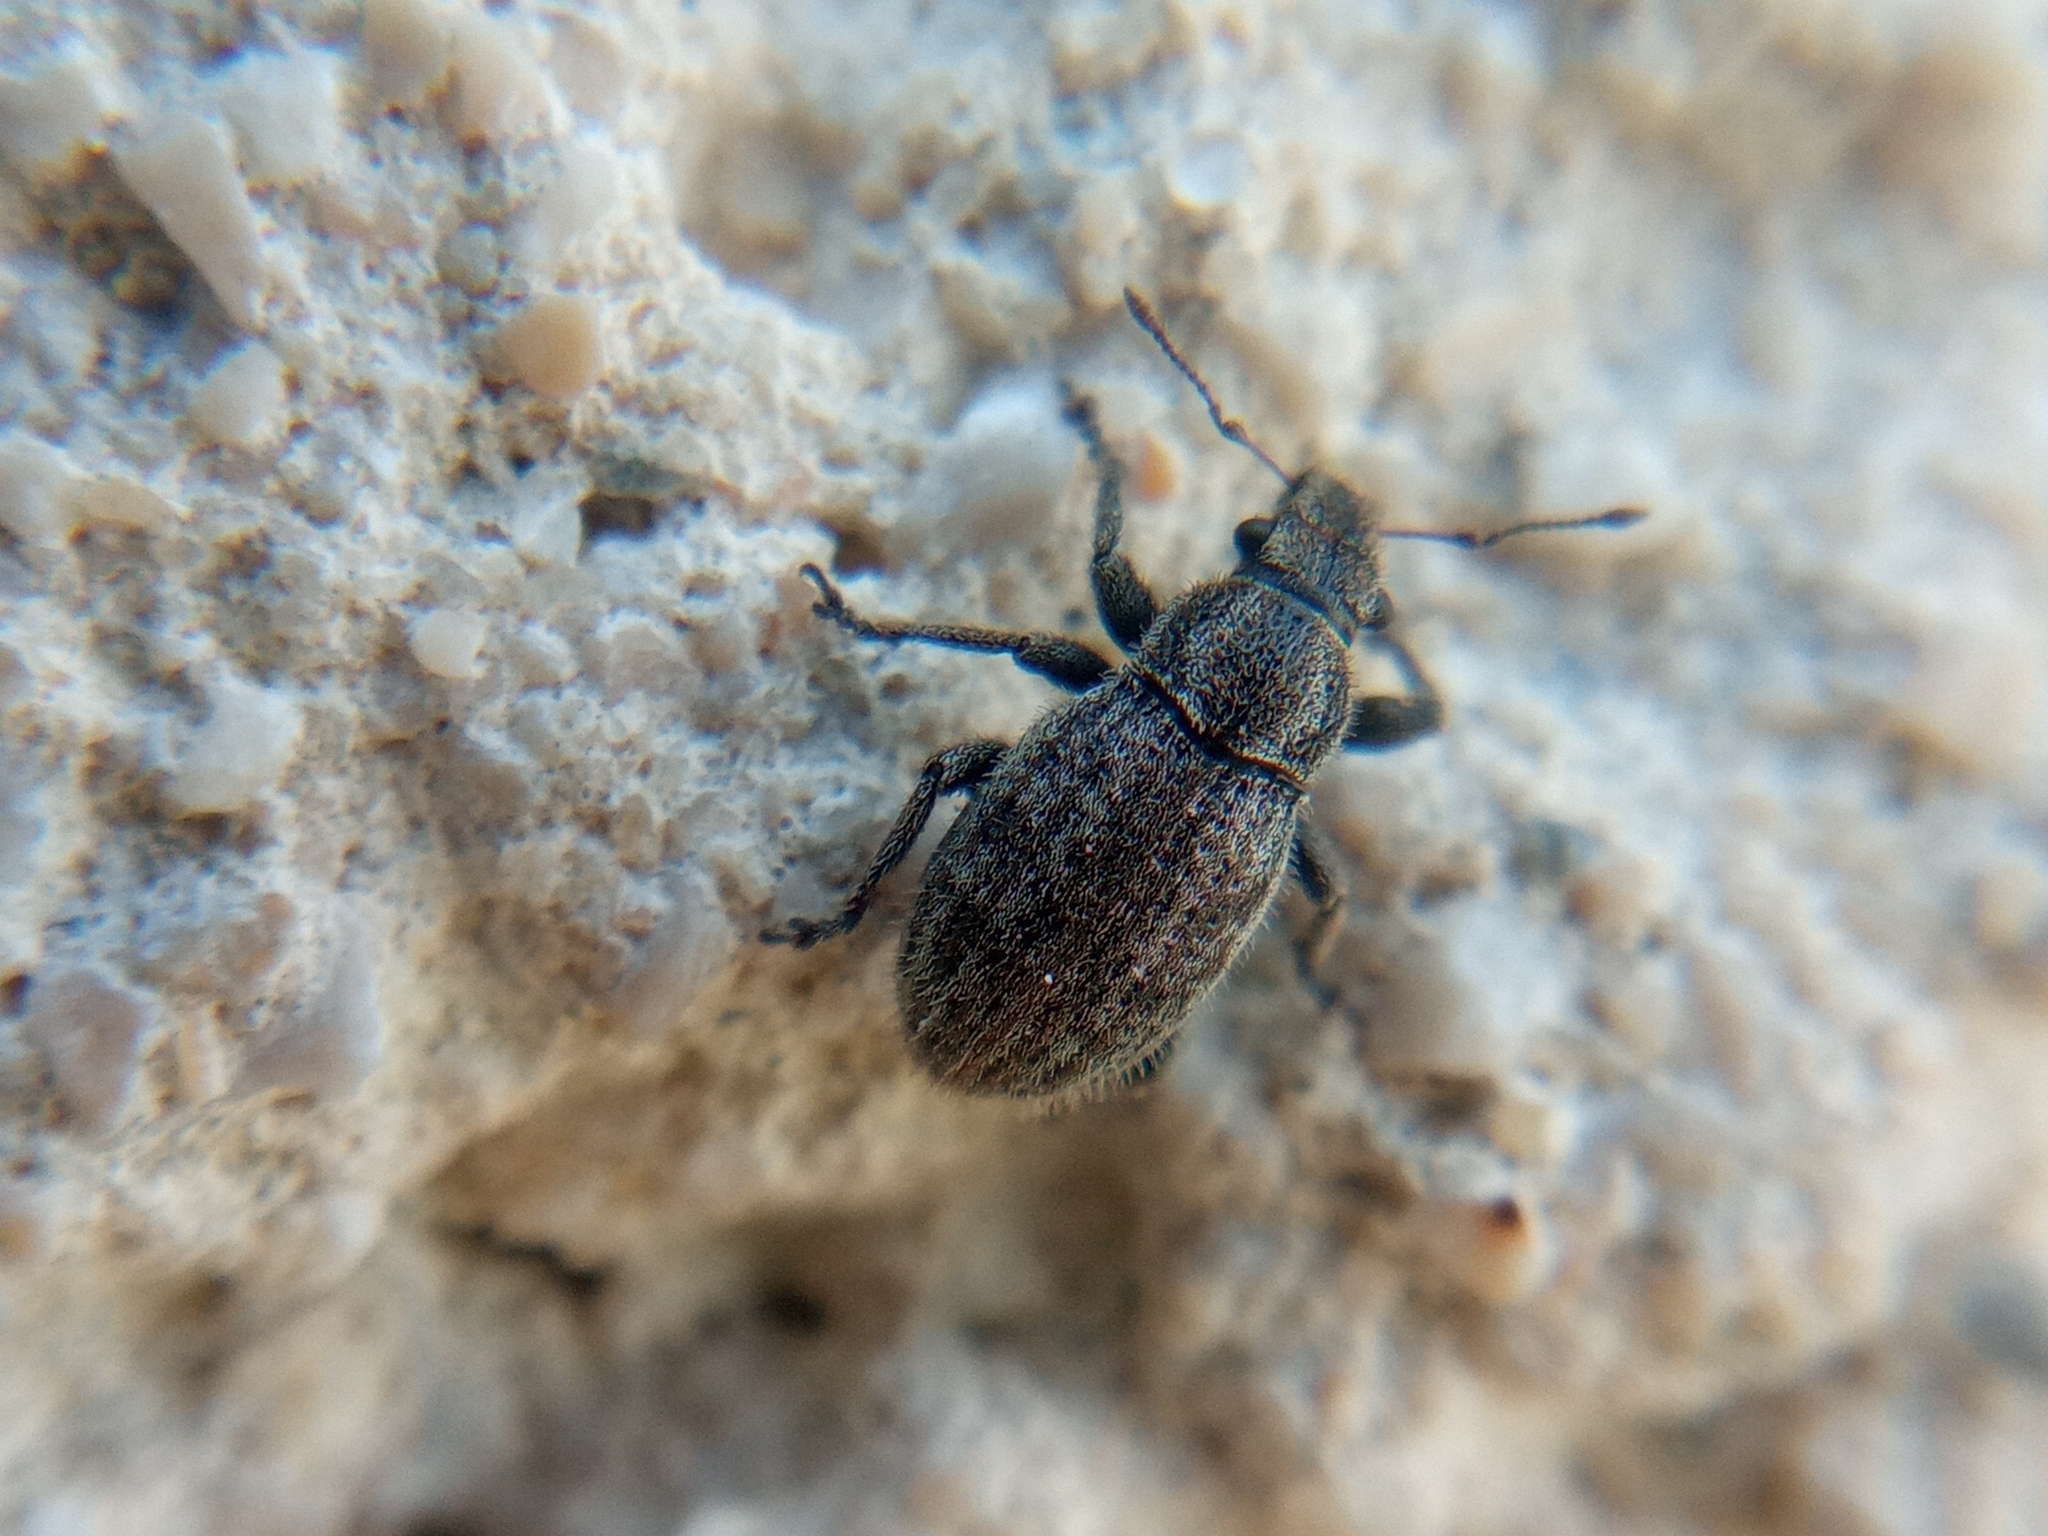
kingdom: Animalia
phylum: Arthropoda
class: Insecta
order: Coleoptera
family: Curculionidae
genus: Strophosoma
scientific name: Strophosoma faber
